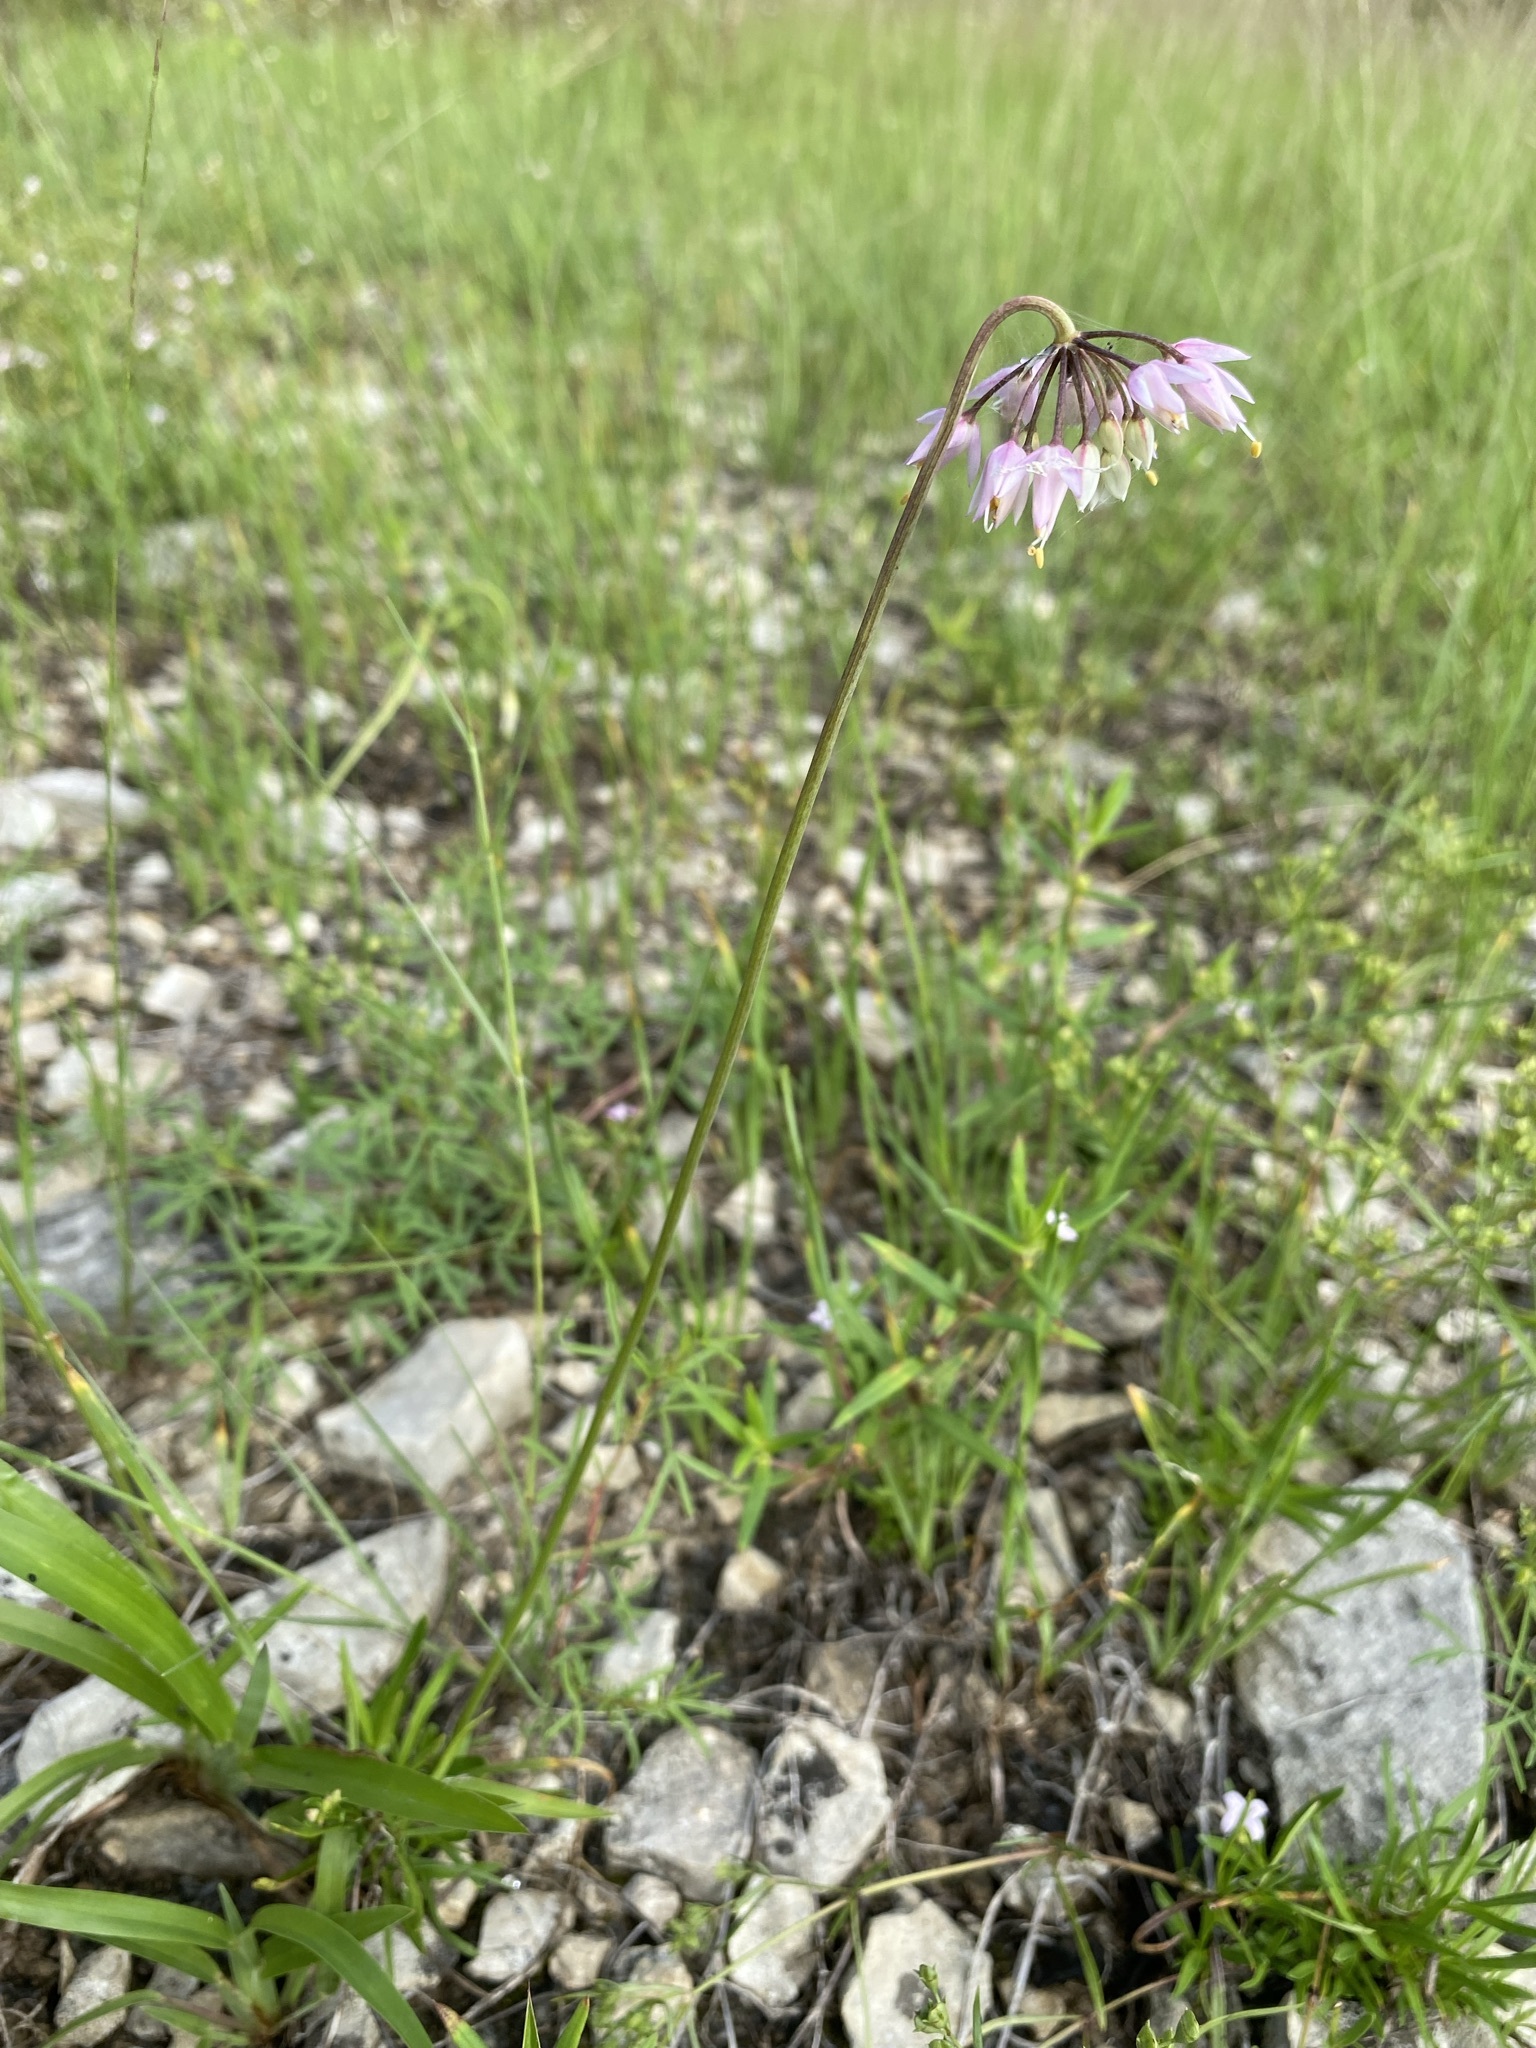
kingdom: Plantae
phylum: Tracheophyta
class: Liliopsida
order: Asparagales
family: Amaryllidaceae
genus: Allium
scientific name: Allium cernuum
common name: Nodding onion
